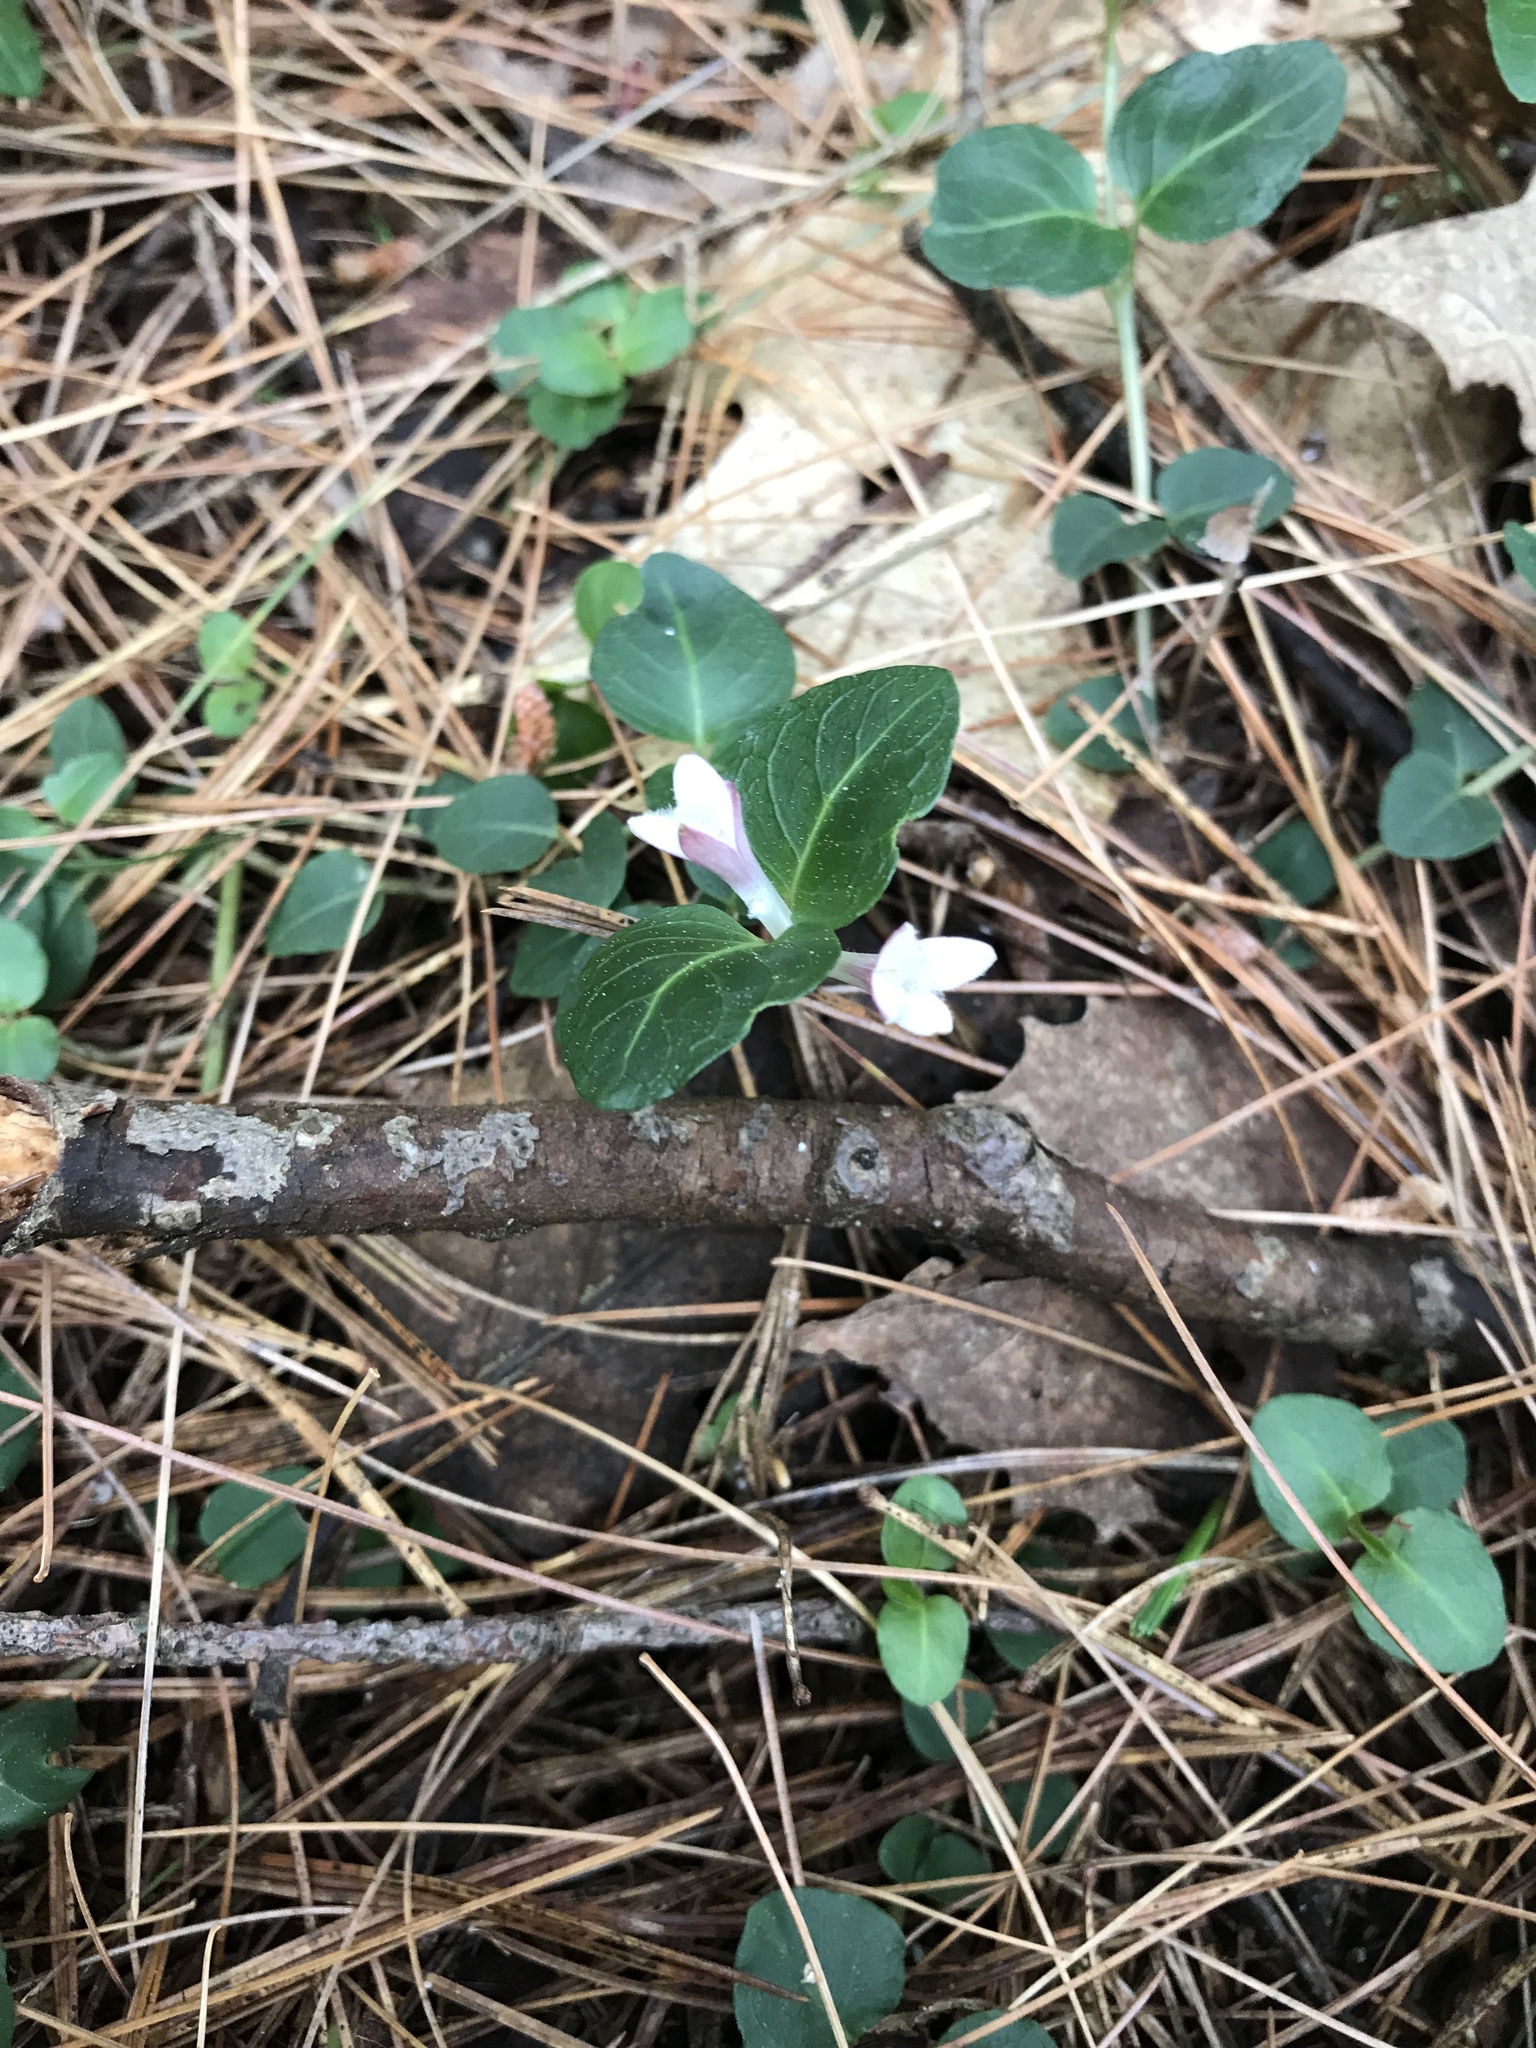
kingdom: Plantae
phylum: Tracheophyta
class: Magnoliopsida
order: Gentianales
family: Rubiaceae
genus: Mitchella
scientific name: Mitchella repens
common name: Partridge-berry
